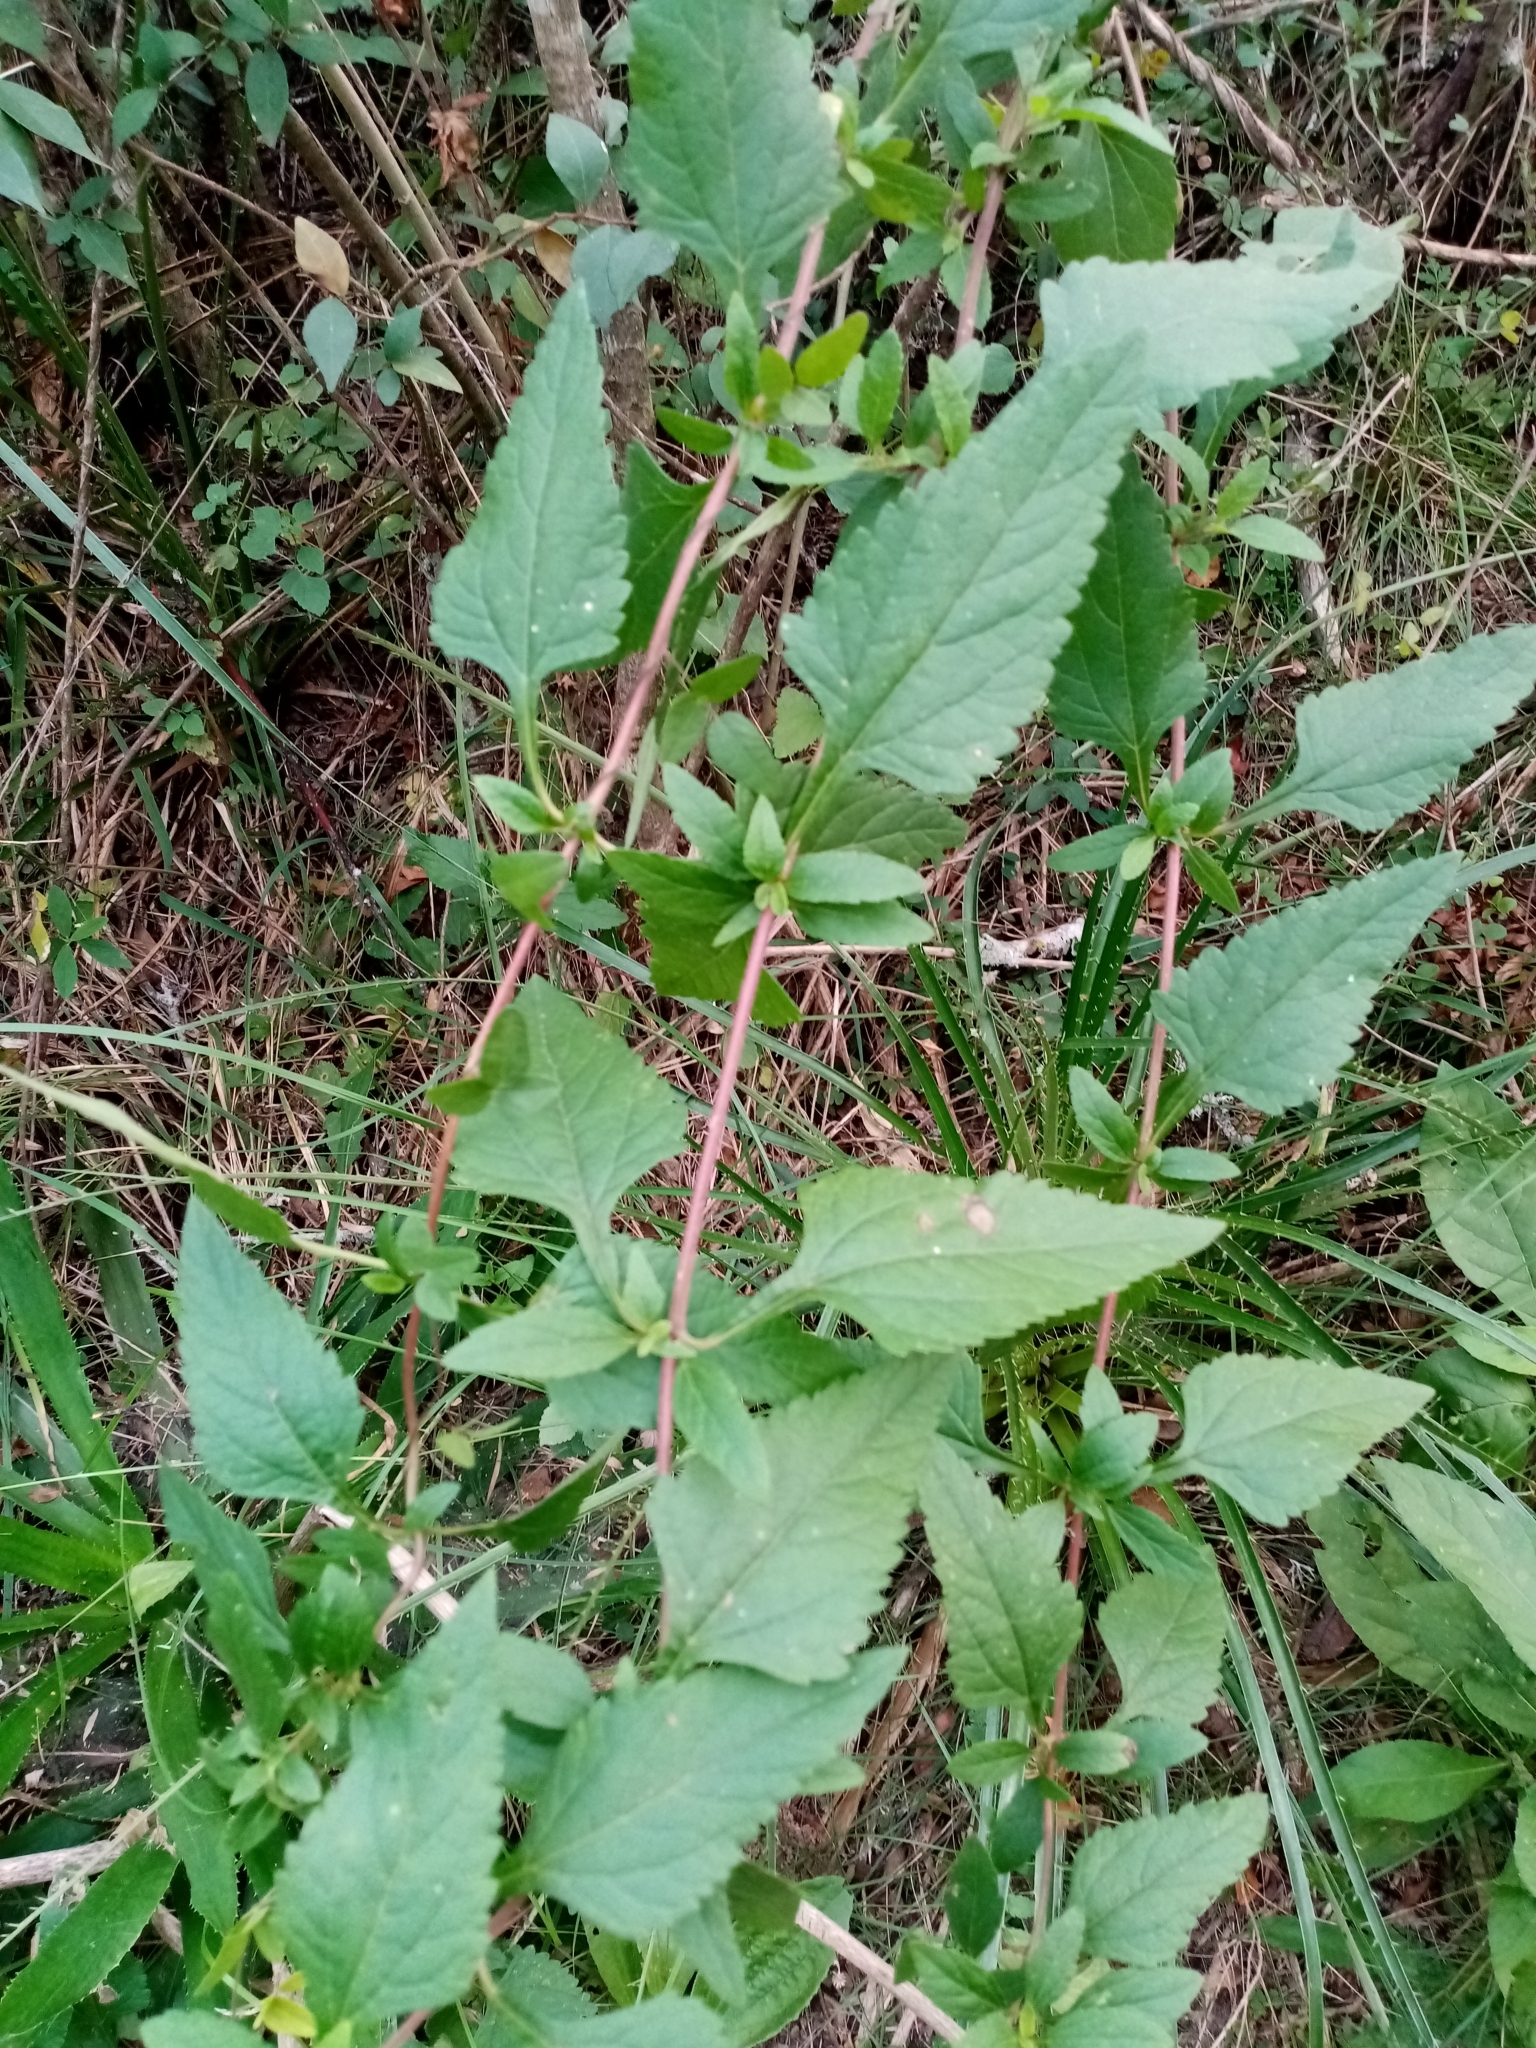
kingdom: Plantae
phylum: Tracheophyta
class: Magnoliopsida
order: Asterales
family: Asteraceae
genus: Austroeupatorium
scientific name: Austroeupatorium inulifolium
